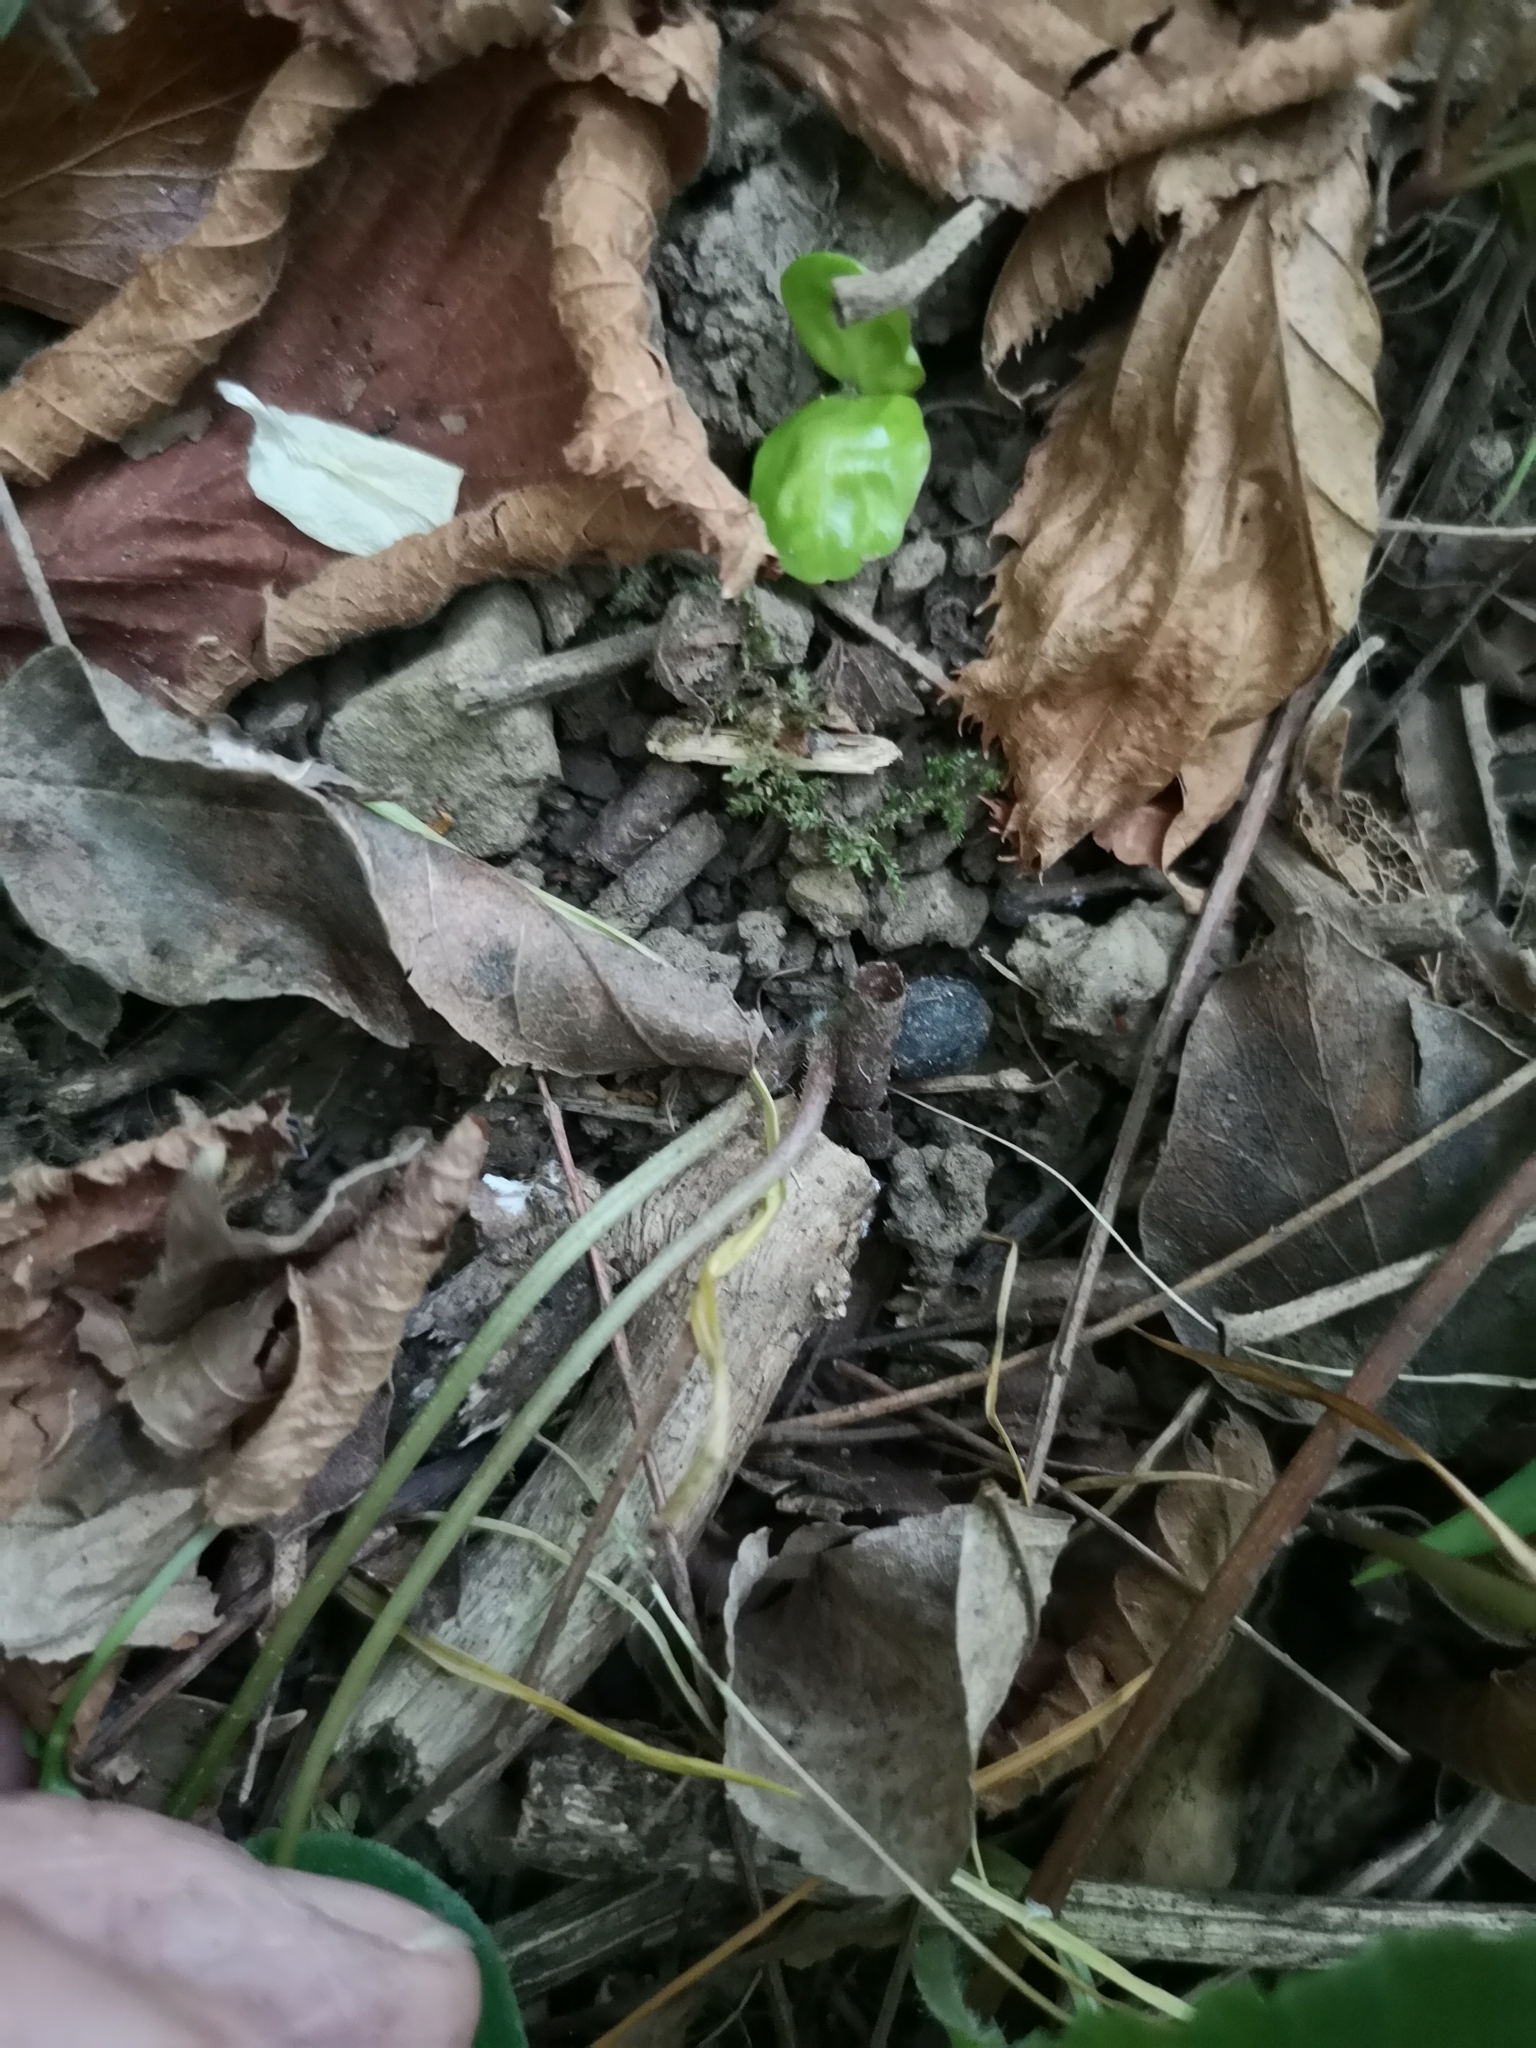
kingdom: Plantae
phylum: Tracheophyta
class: Magnoliopsida
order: Piperales
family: Aristolochiaceae
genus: Asarum
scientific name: Asarum europaeum
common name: Asarabacca
